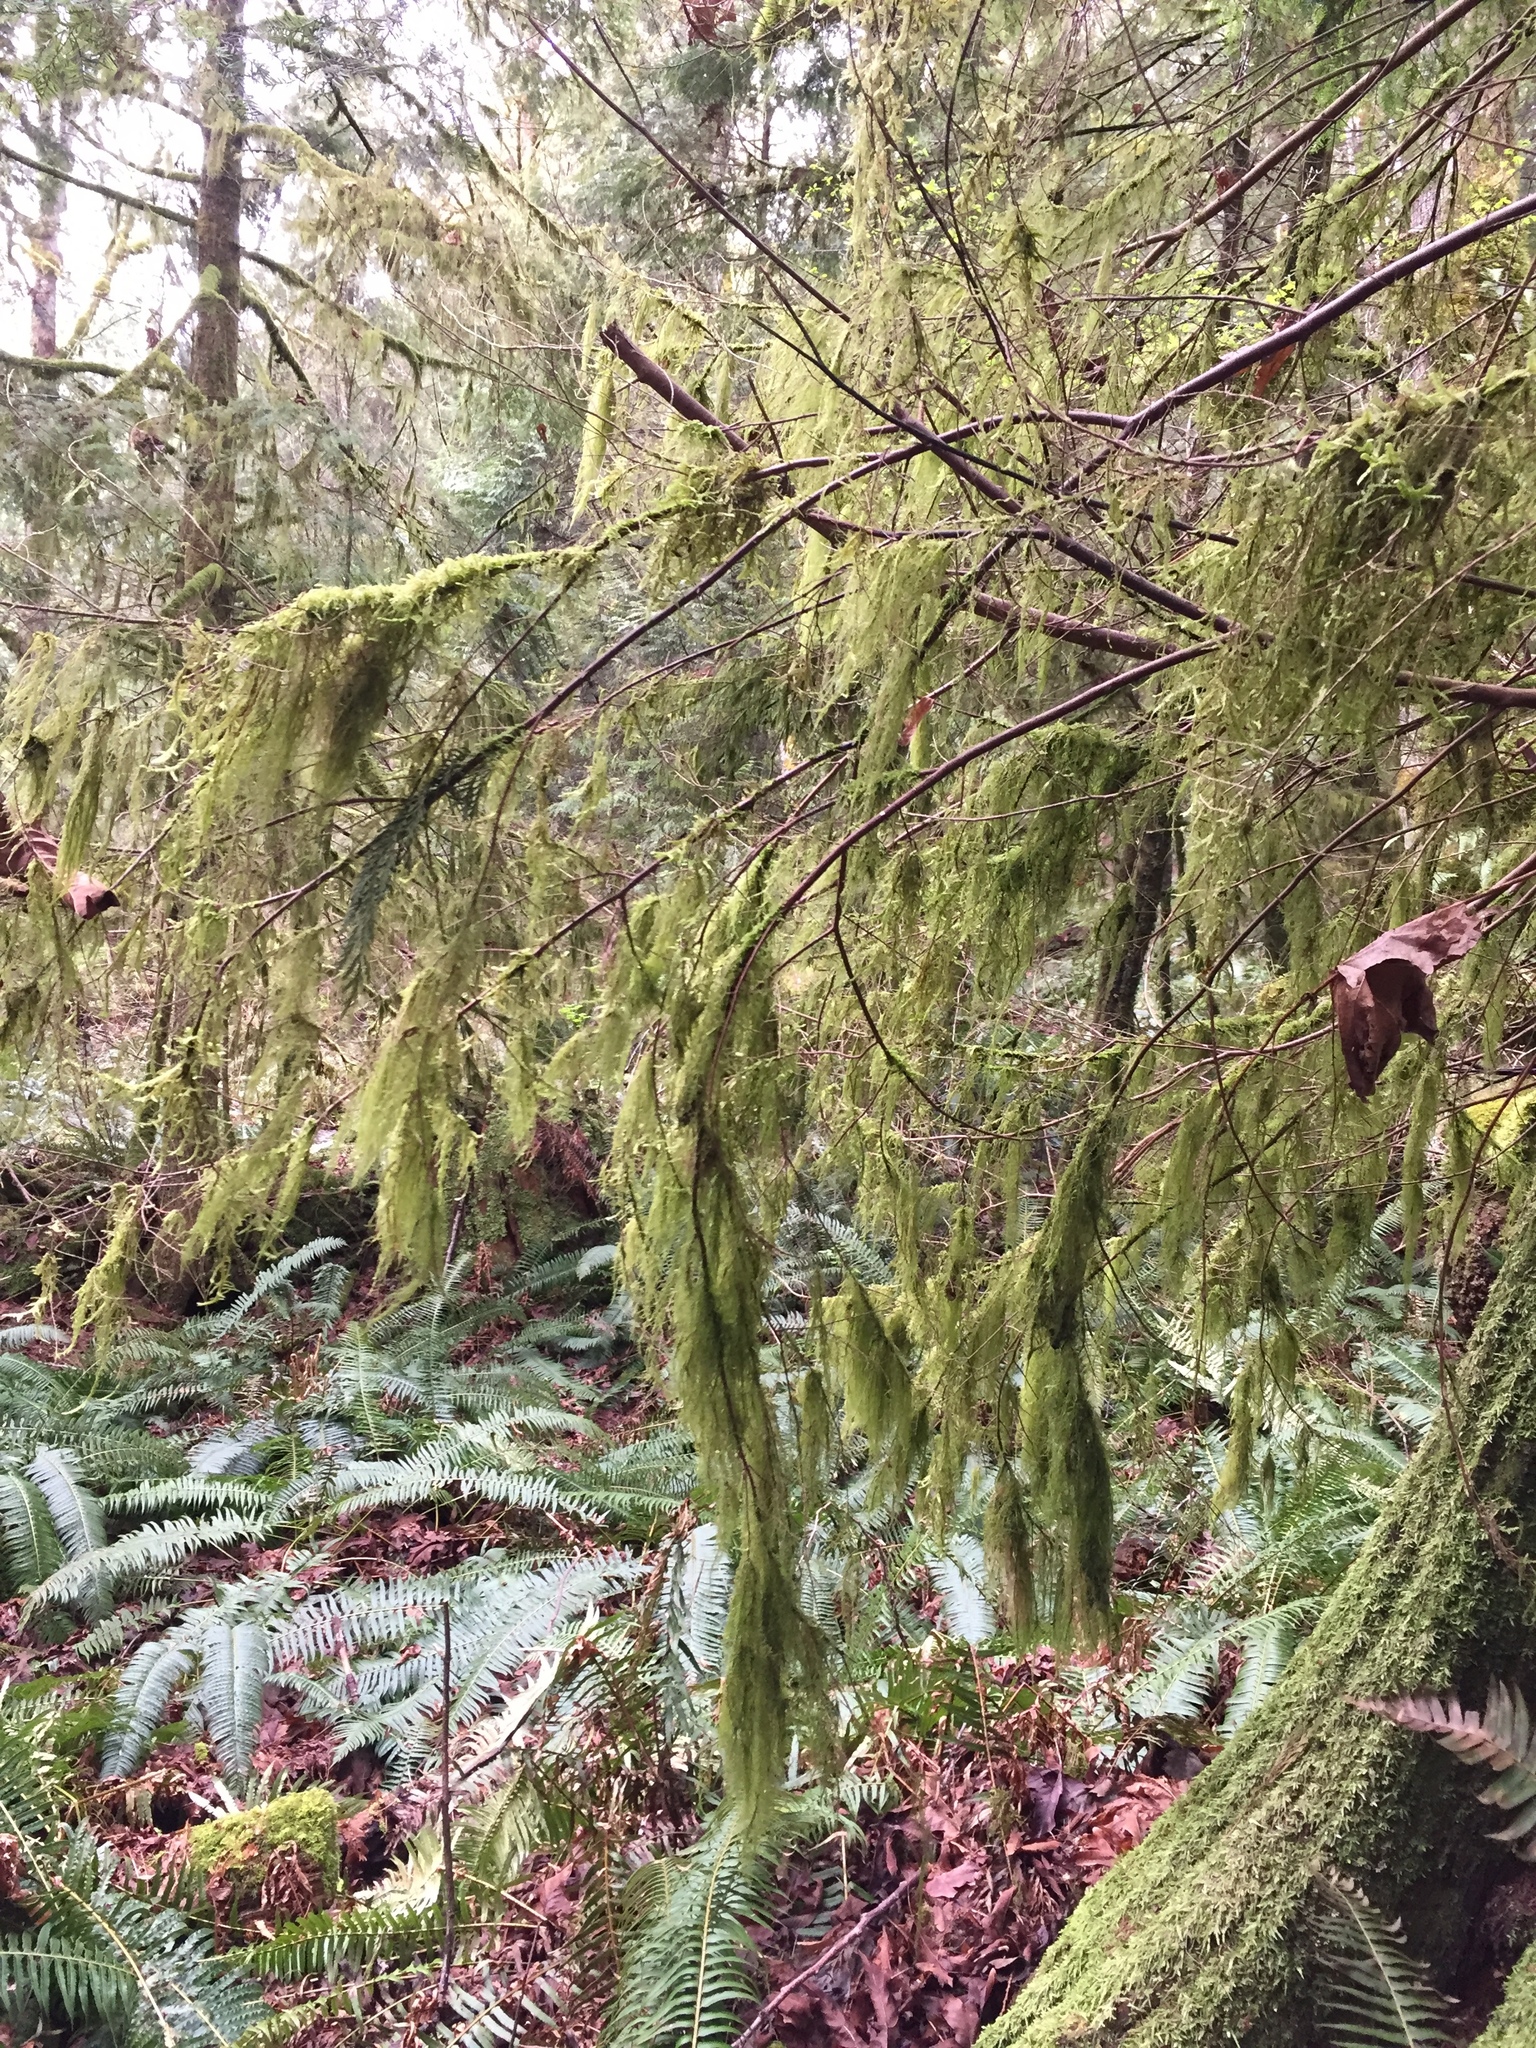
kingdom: Plantae
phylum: Bryophyta
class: Bryopsida
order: Hypnales
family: Lembophyllaceae
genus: Pseudisothecium
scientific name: Pseudisothecium stoloniferum
